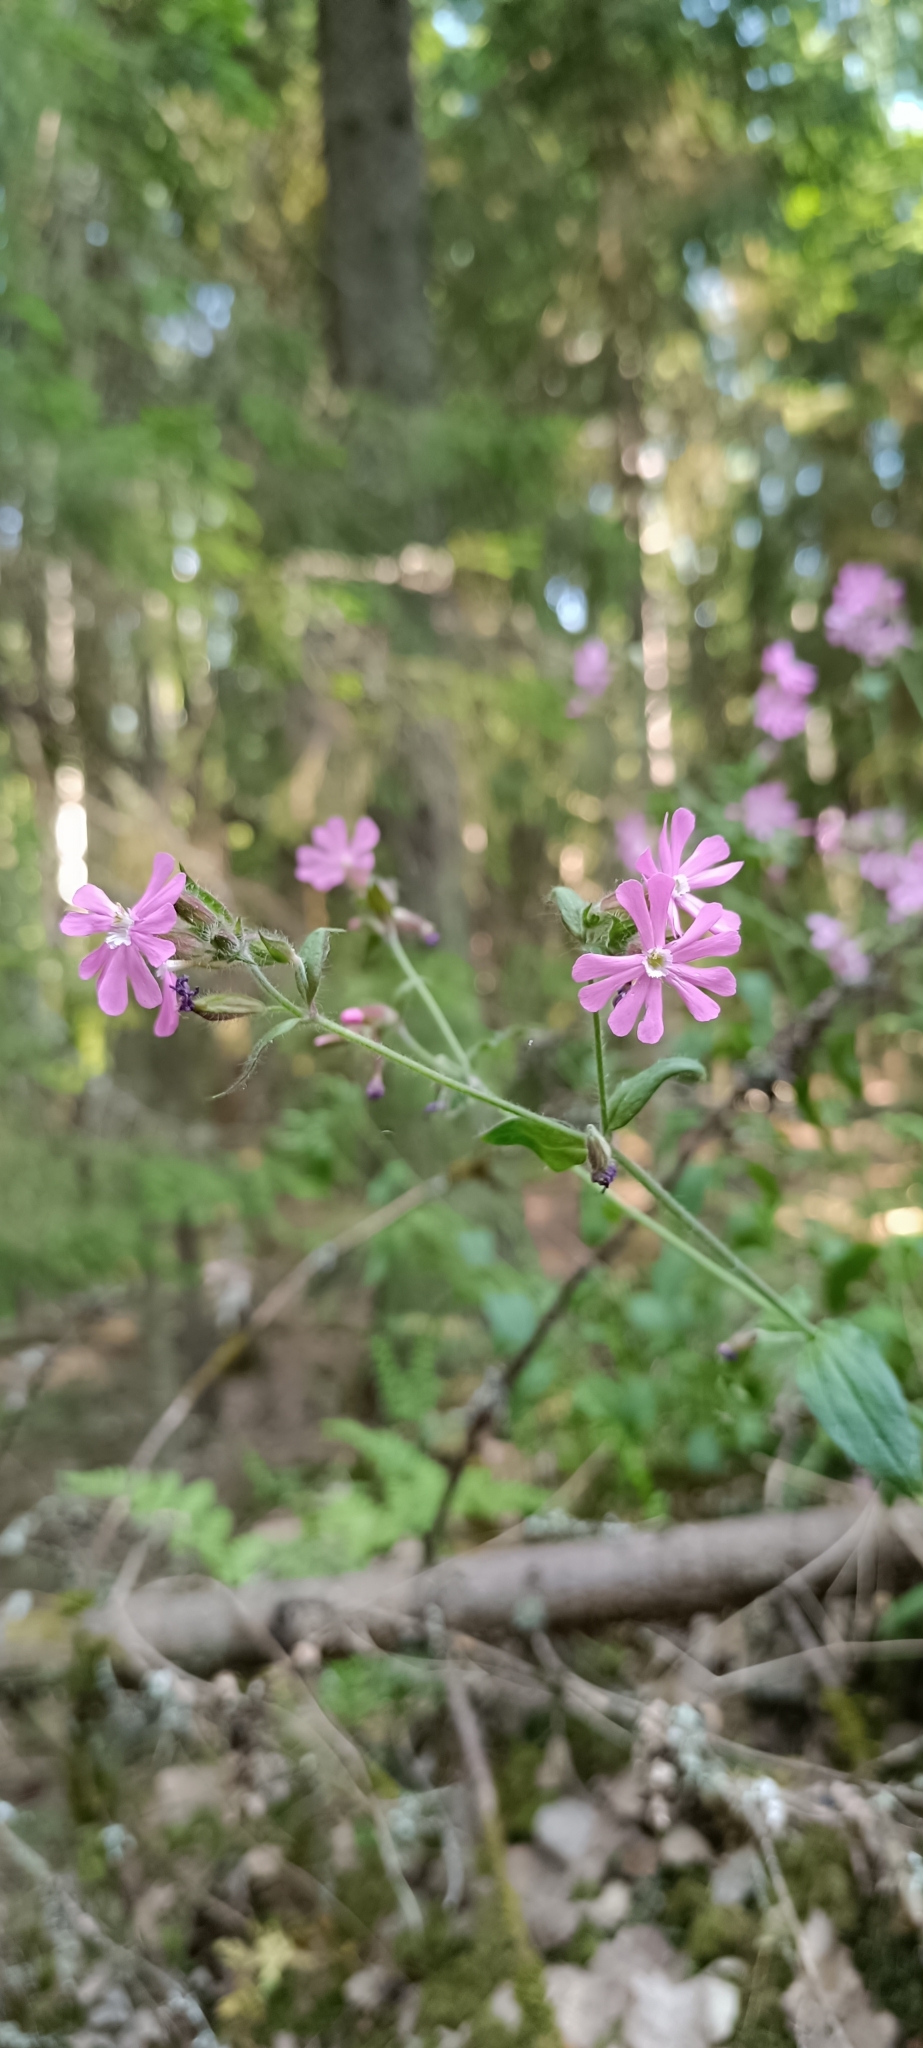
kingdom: Plantae
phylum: Tracheophyta
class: Magnoliopsida
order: Caryophyllales
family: Caryophyllaceae
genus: Silene
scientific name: Silene dioica
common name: Red campion
